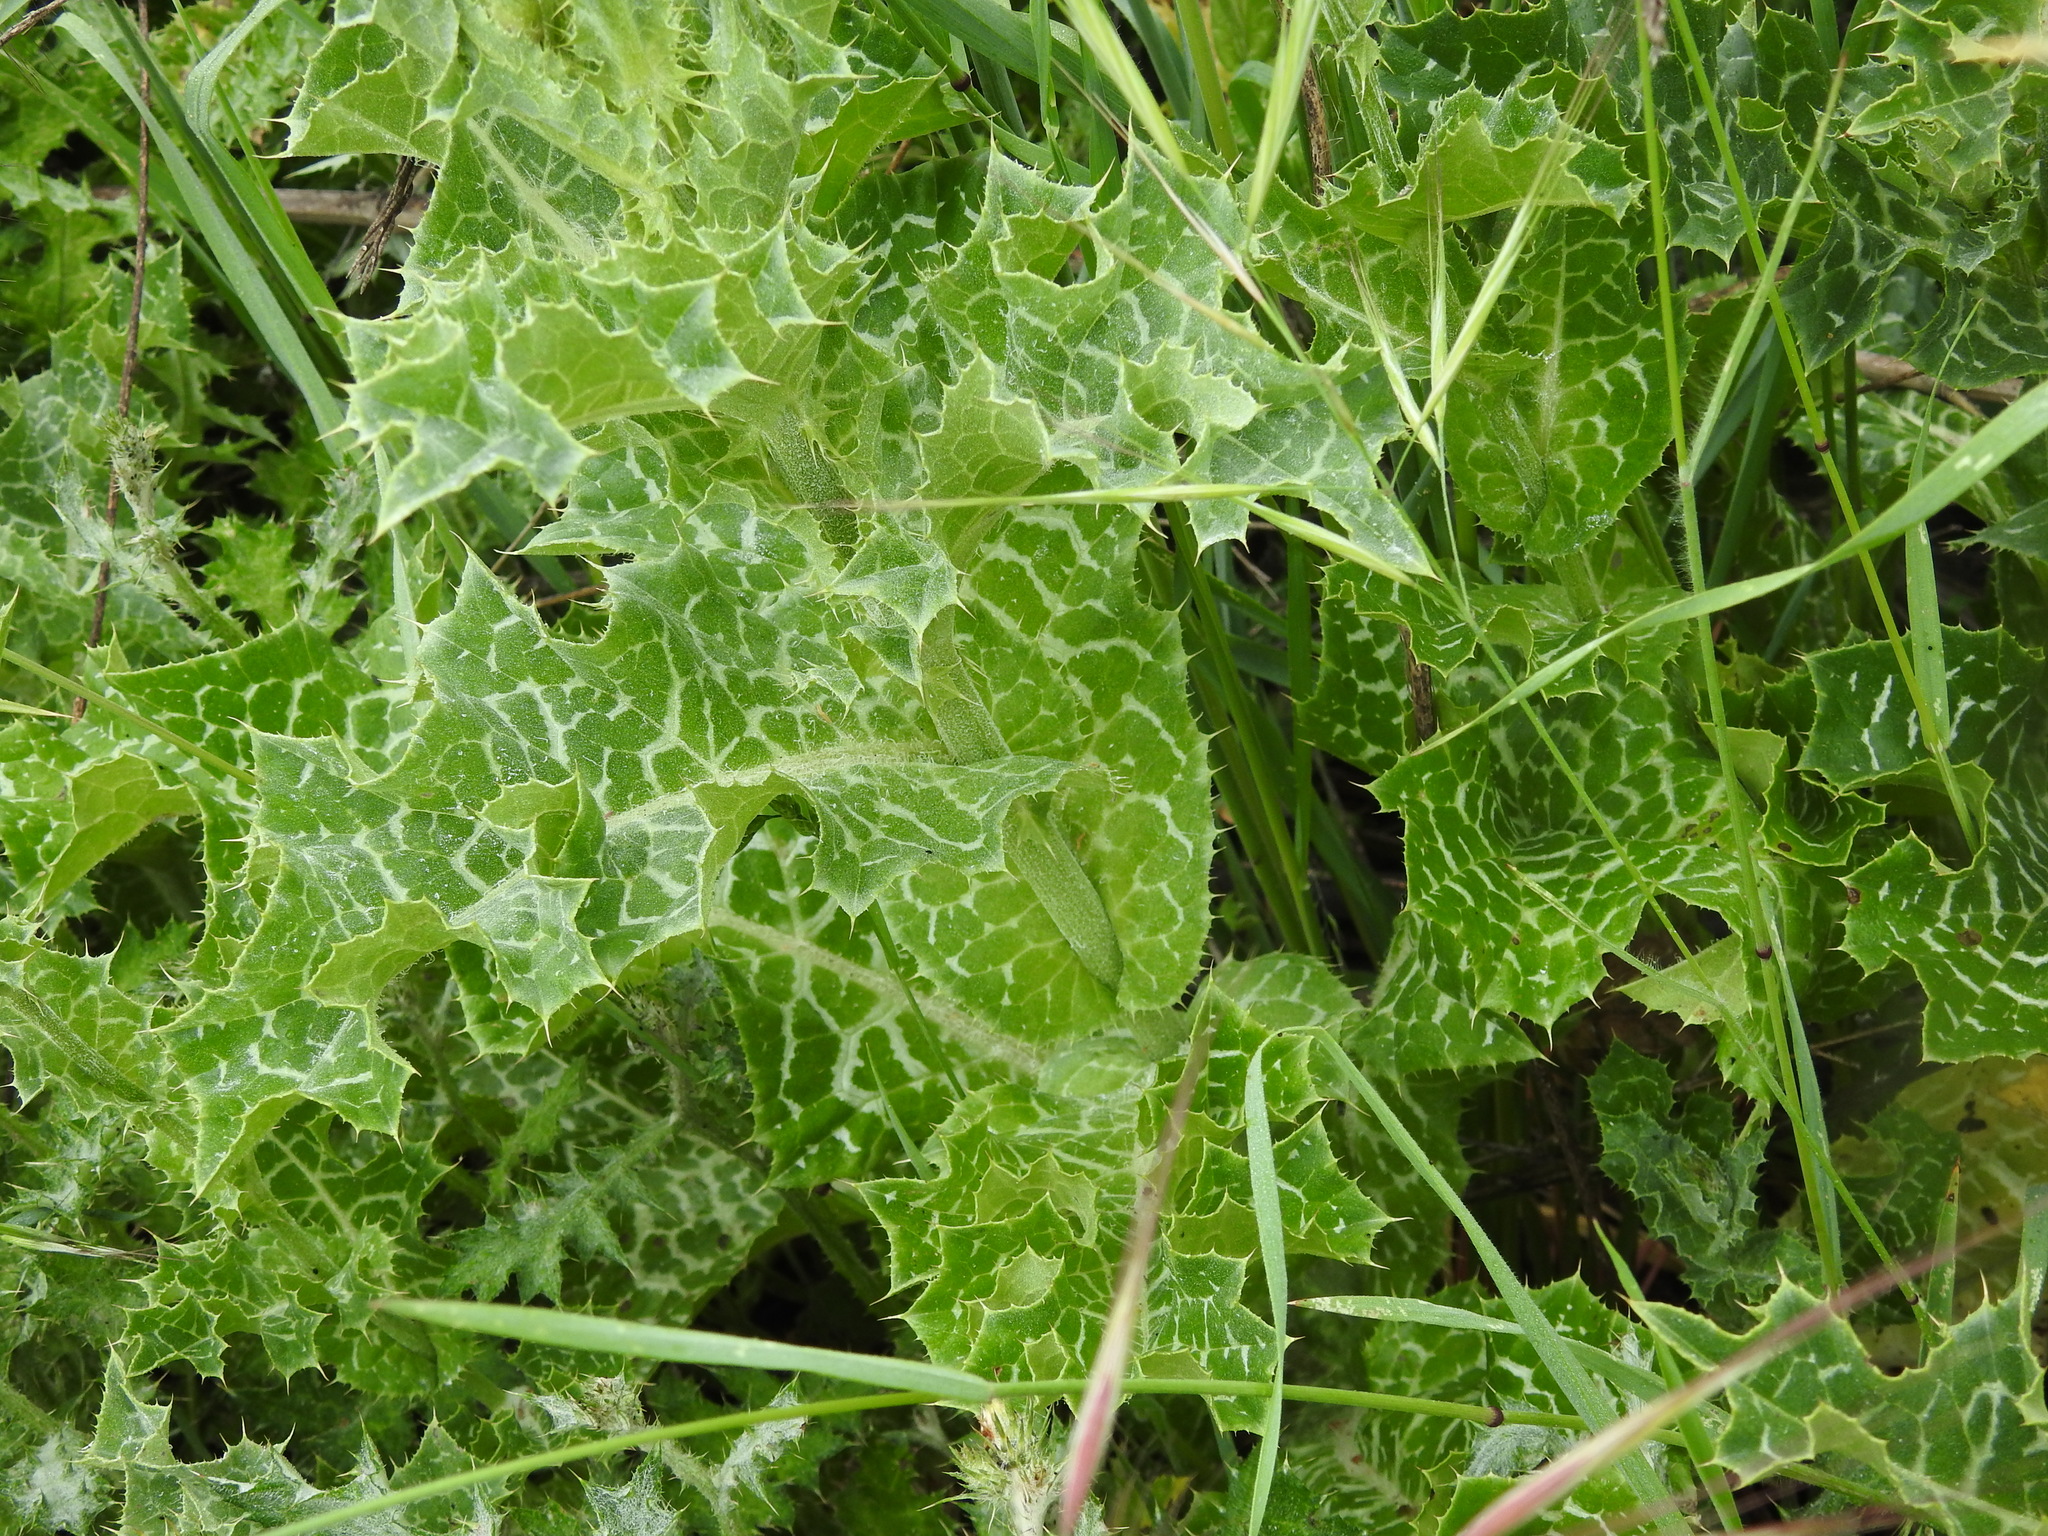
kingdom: Plantae
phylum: Tracheophyta
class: Magnoliopsida
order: Asterales
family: Asteraceae
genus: Silybum
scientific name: Silybum marianum
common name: Milk thistle
